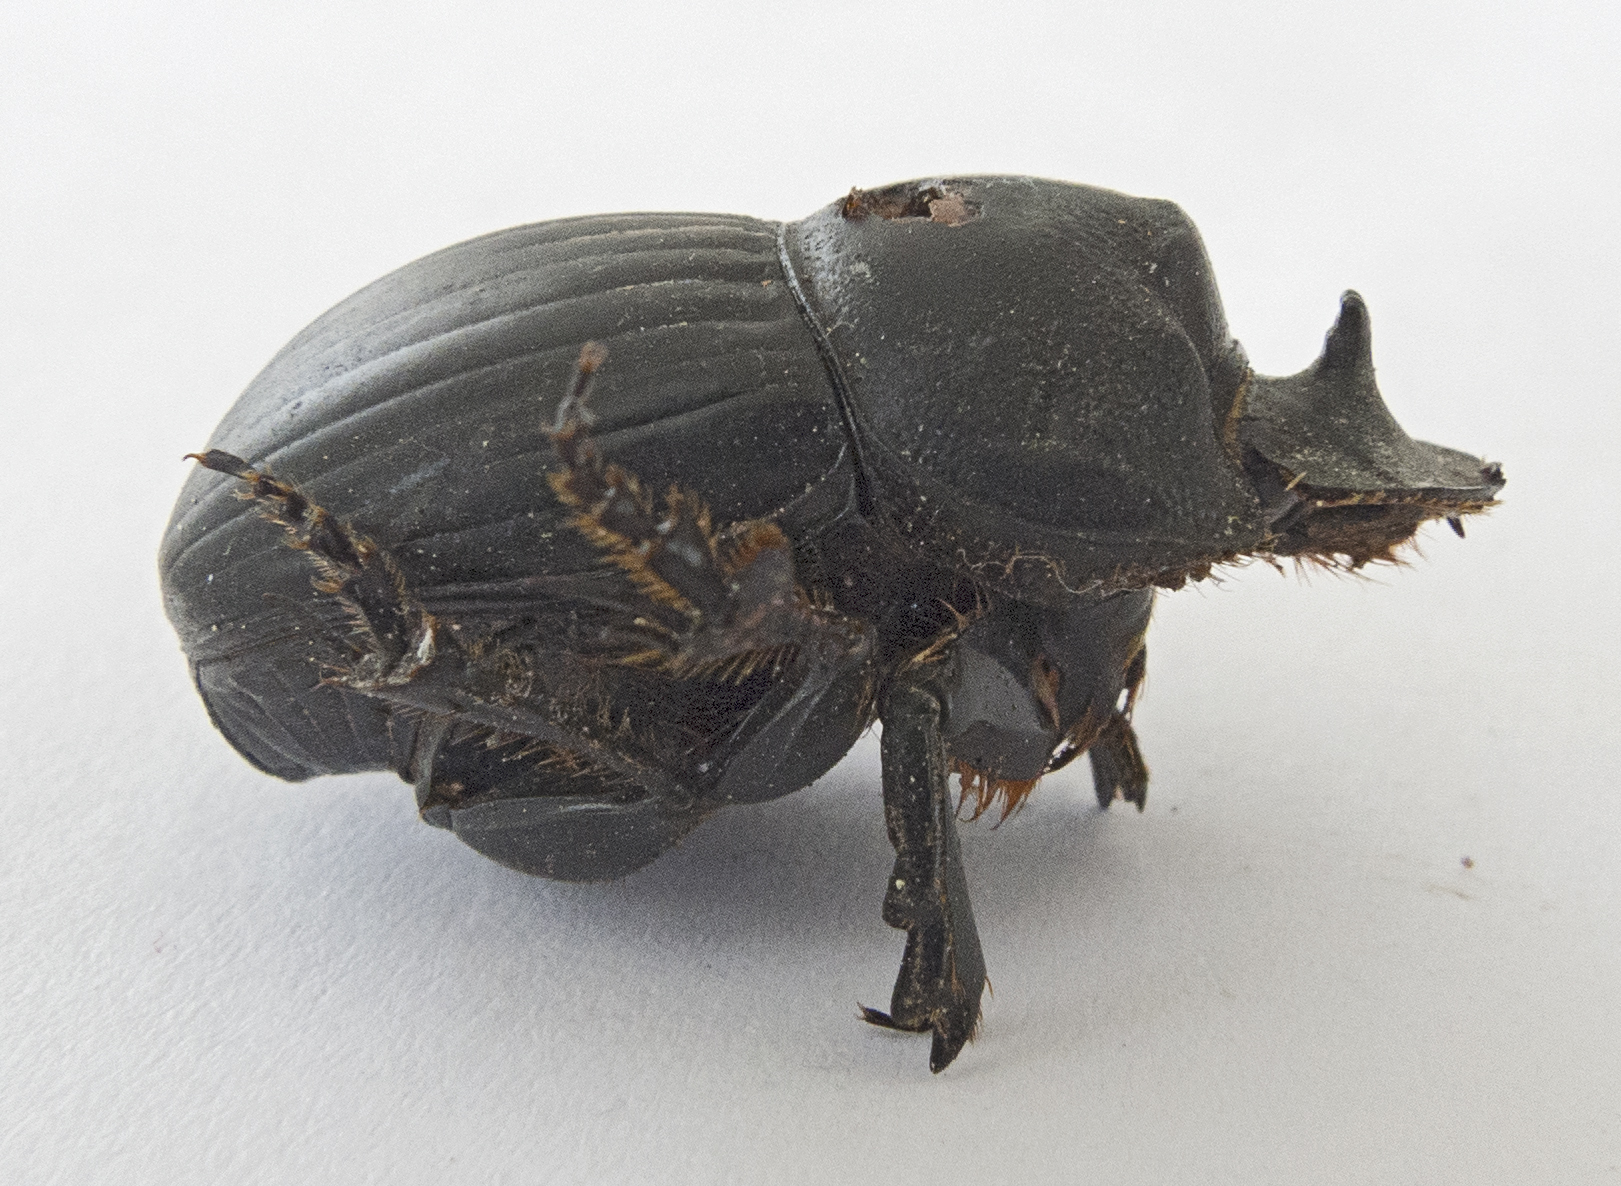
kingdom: Animalia
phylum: Arthropoda
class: Insecta
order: Coleoptera
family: Scarabaeidae
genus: Copris
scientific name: Copris lunaris
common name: Horned dung beetle
